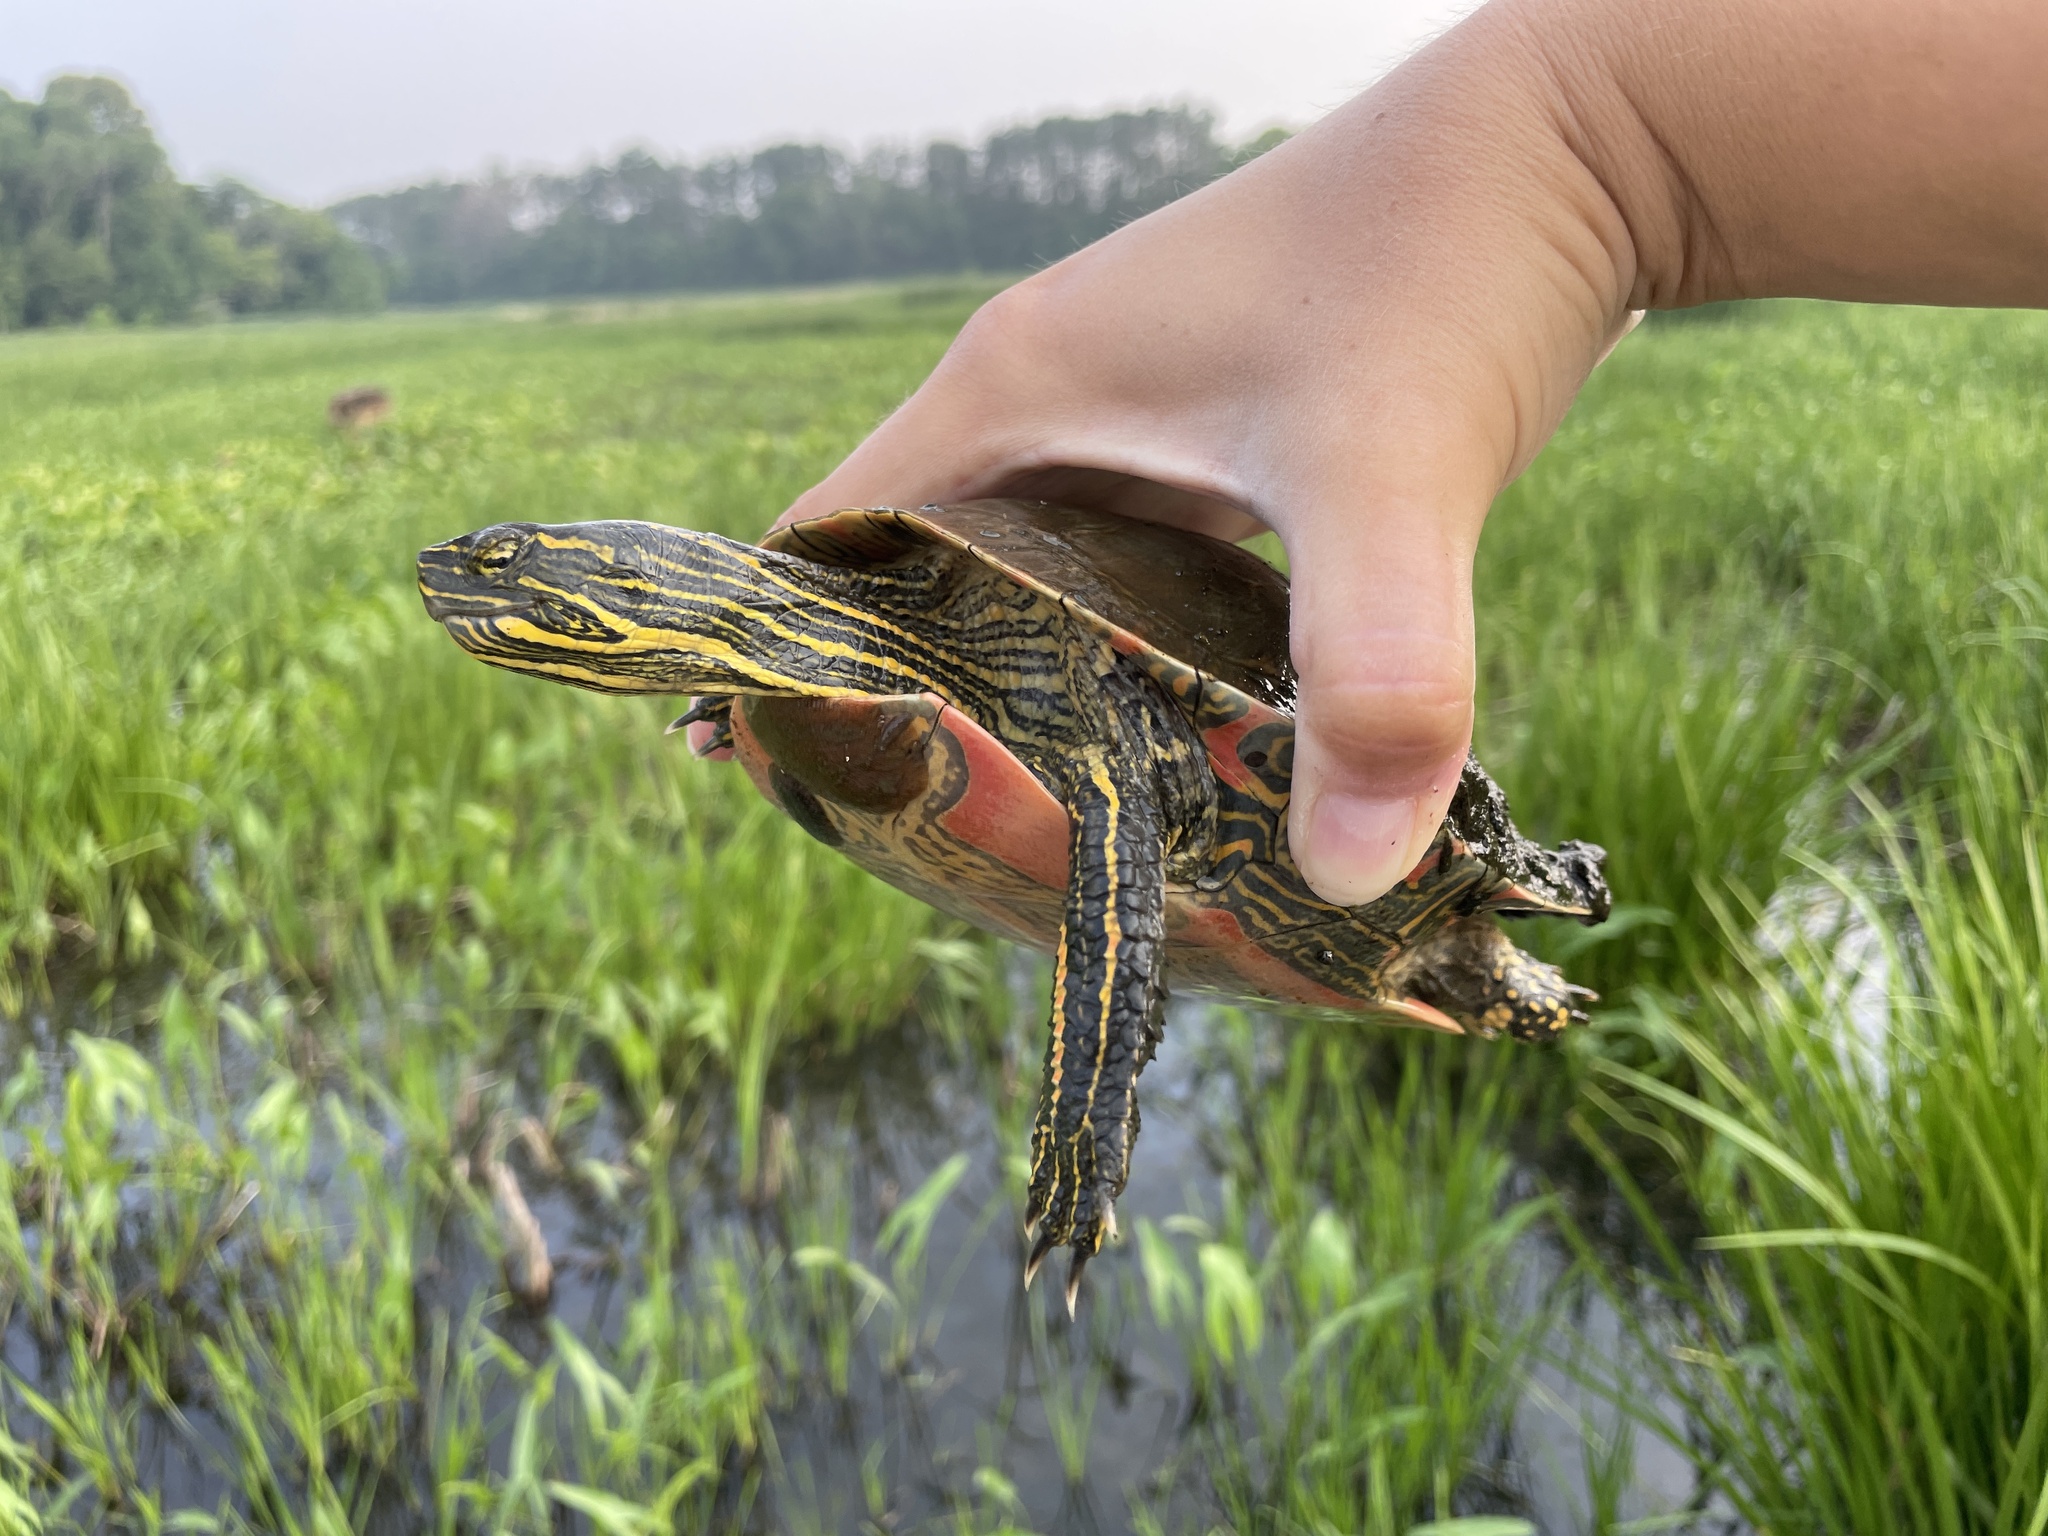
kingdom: Animalia
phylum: Chordata
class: Testudines
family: Emydidae
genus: Chrysemys
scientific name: Chrysemys picta
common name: Painted turtle
